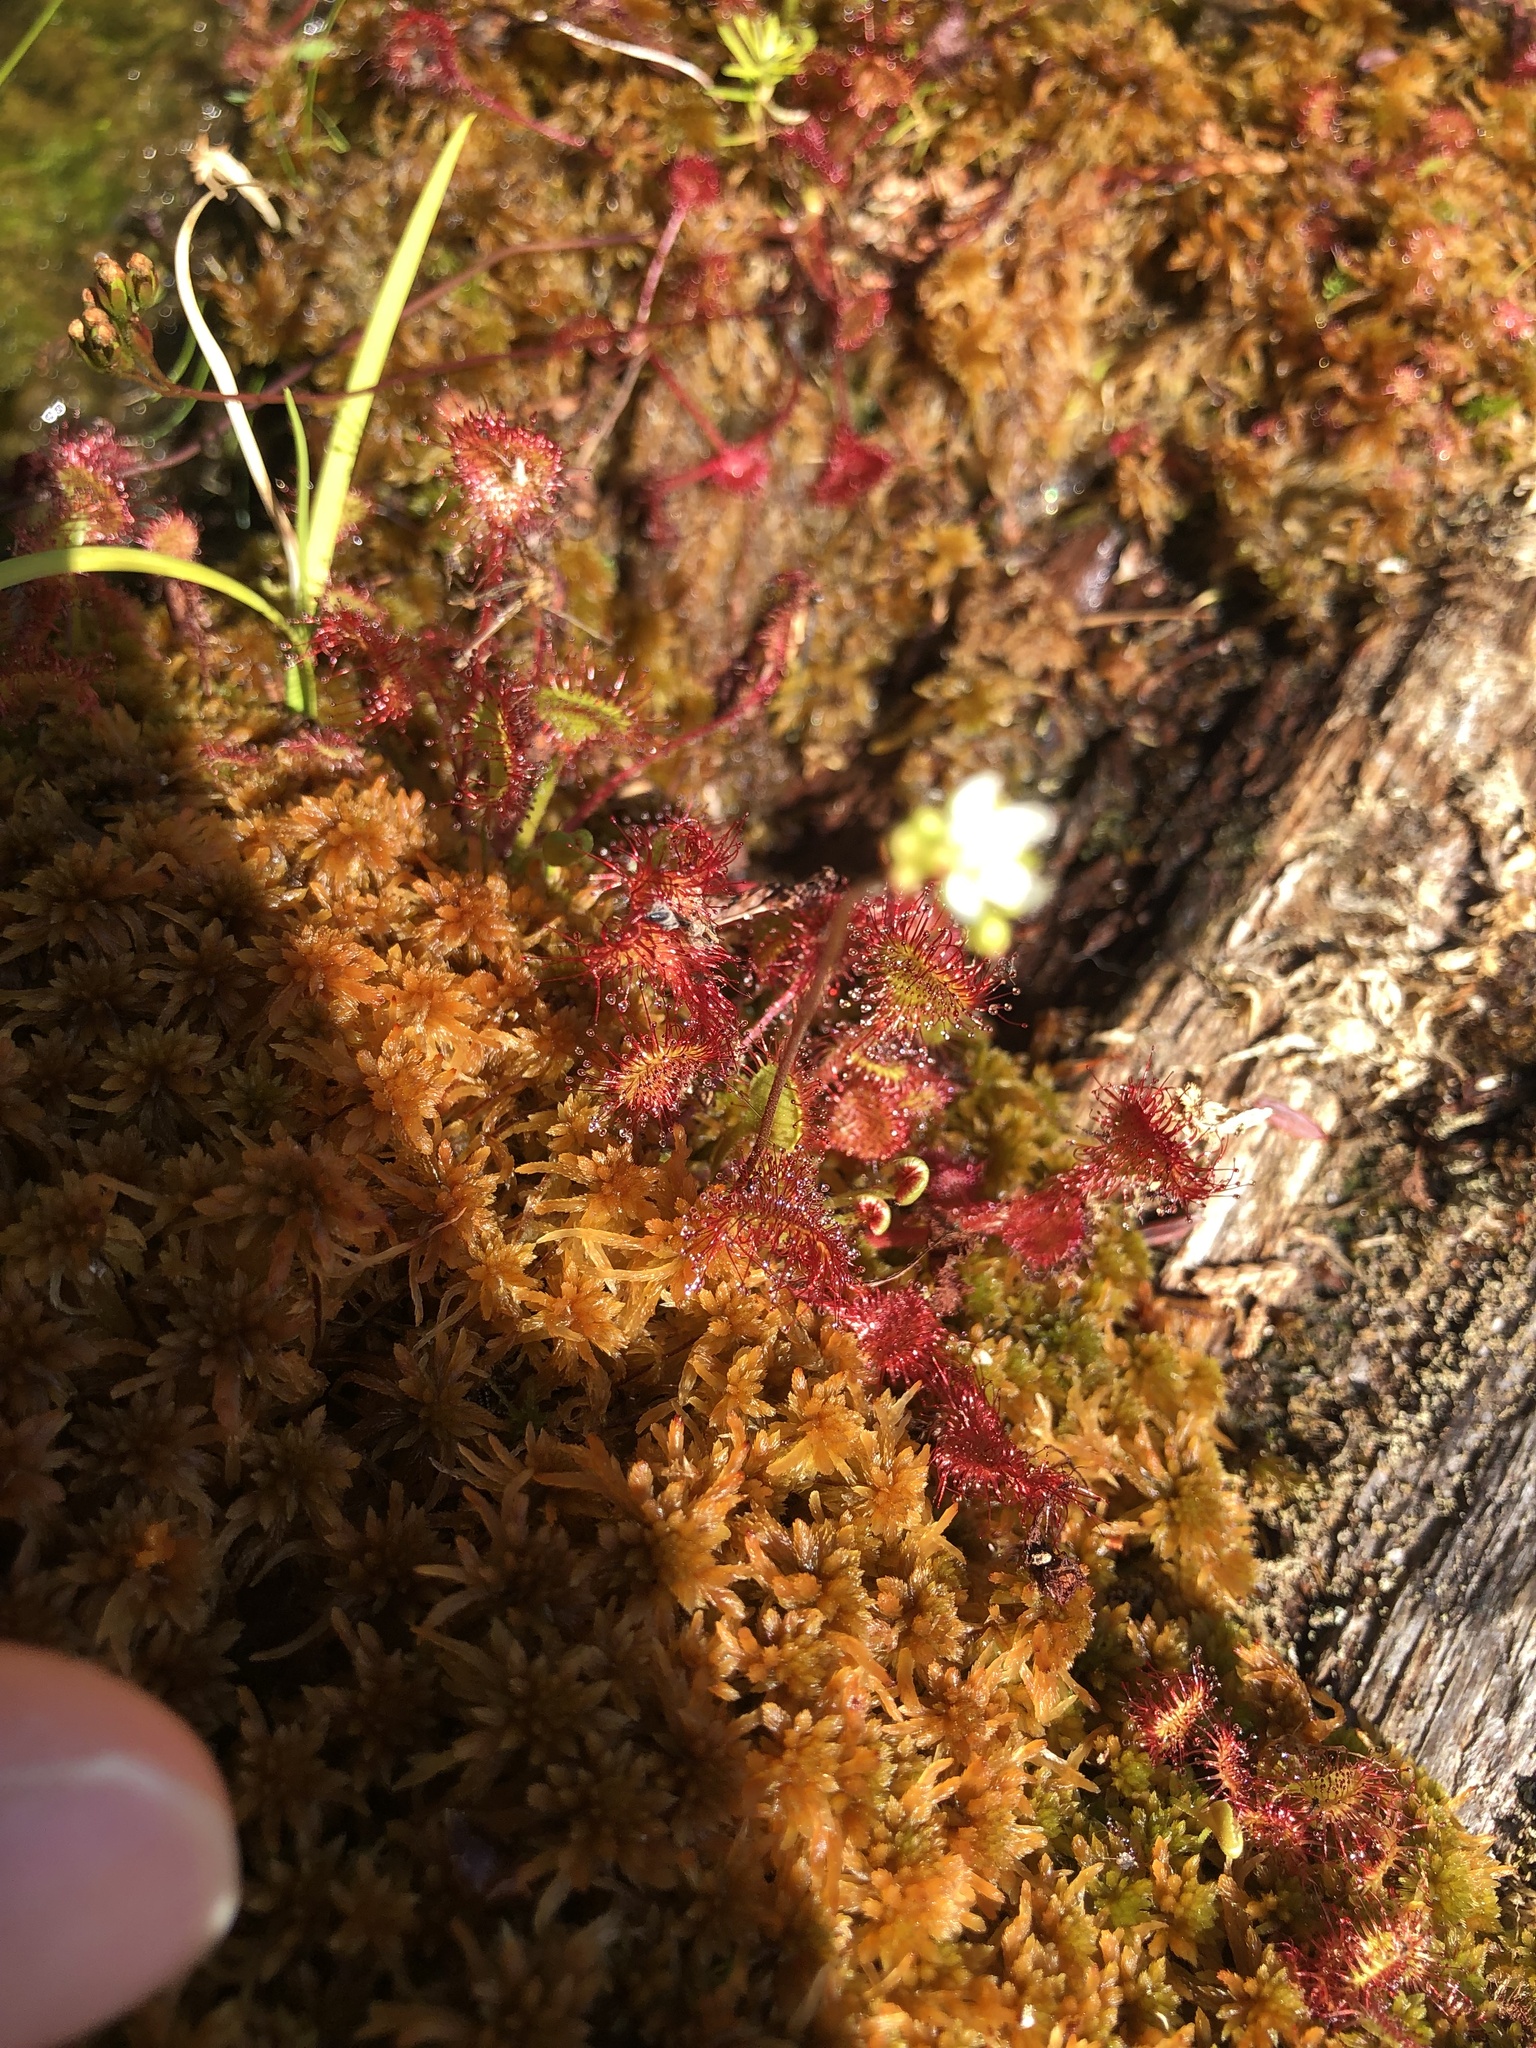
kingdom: Plantae
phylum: Tracheophyta
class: Magnoliopsida
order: Caryophyllales
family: Droseraceae
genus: Drosera
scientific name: Drosera rotundifolia
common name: Round-leaved sundew
